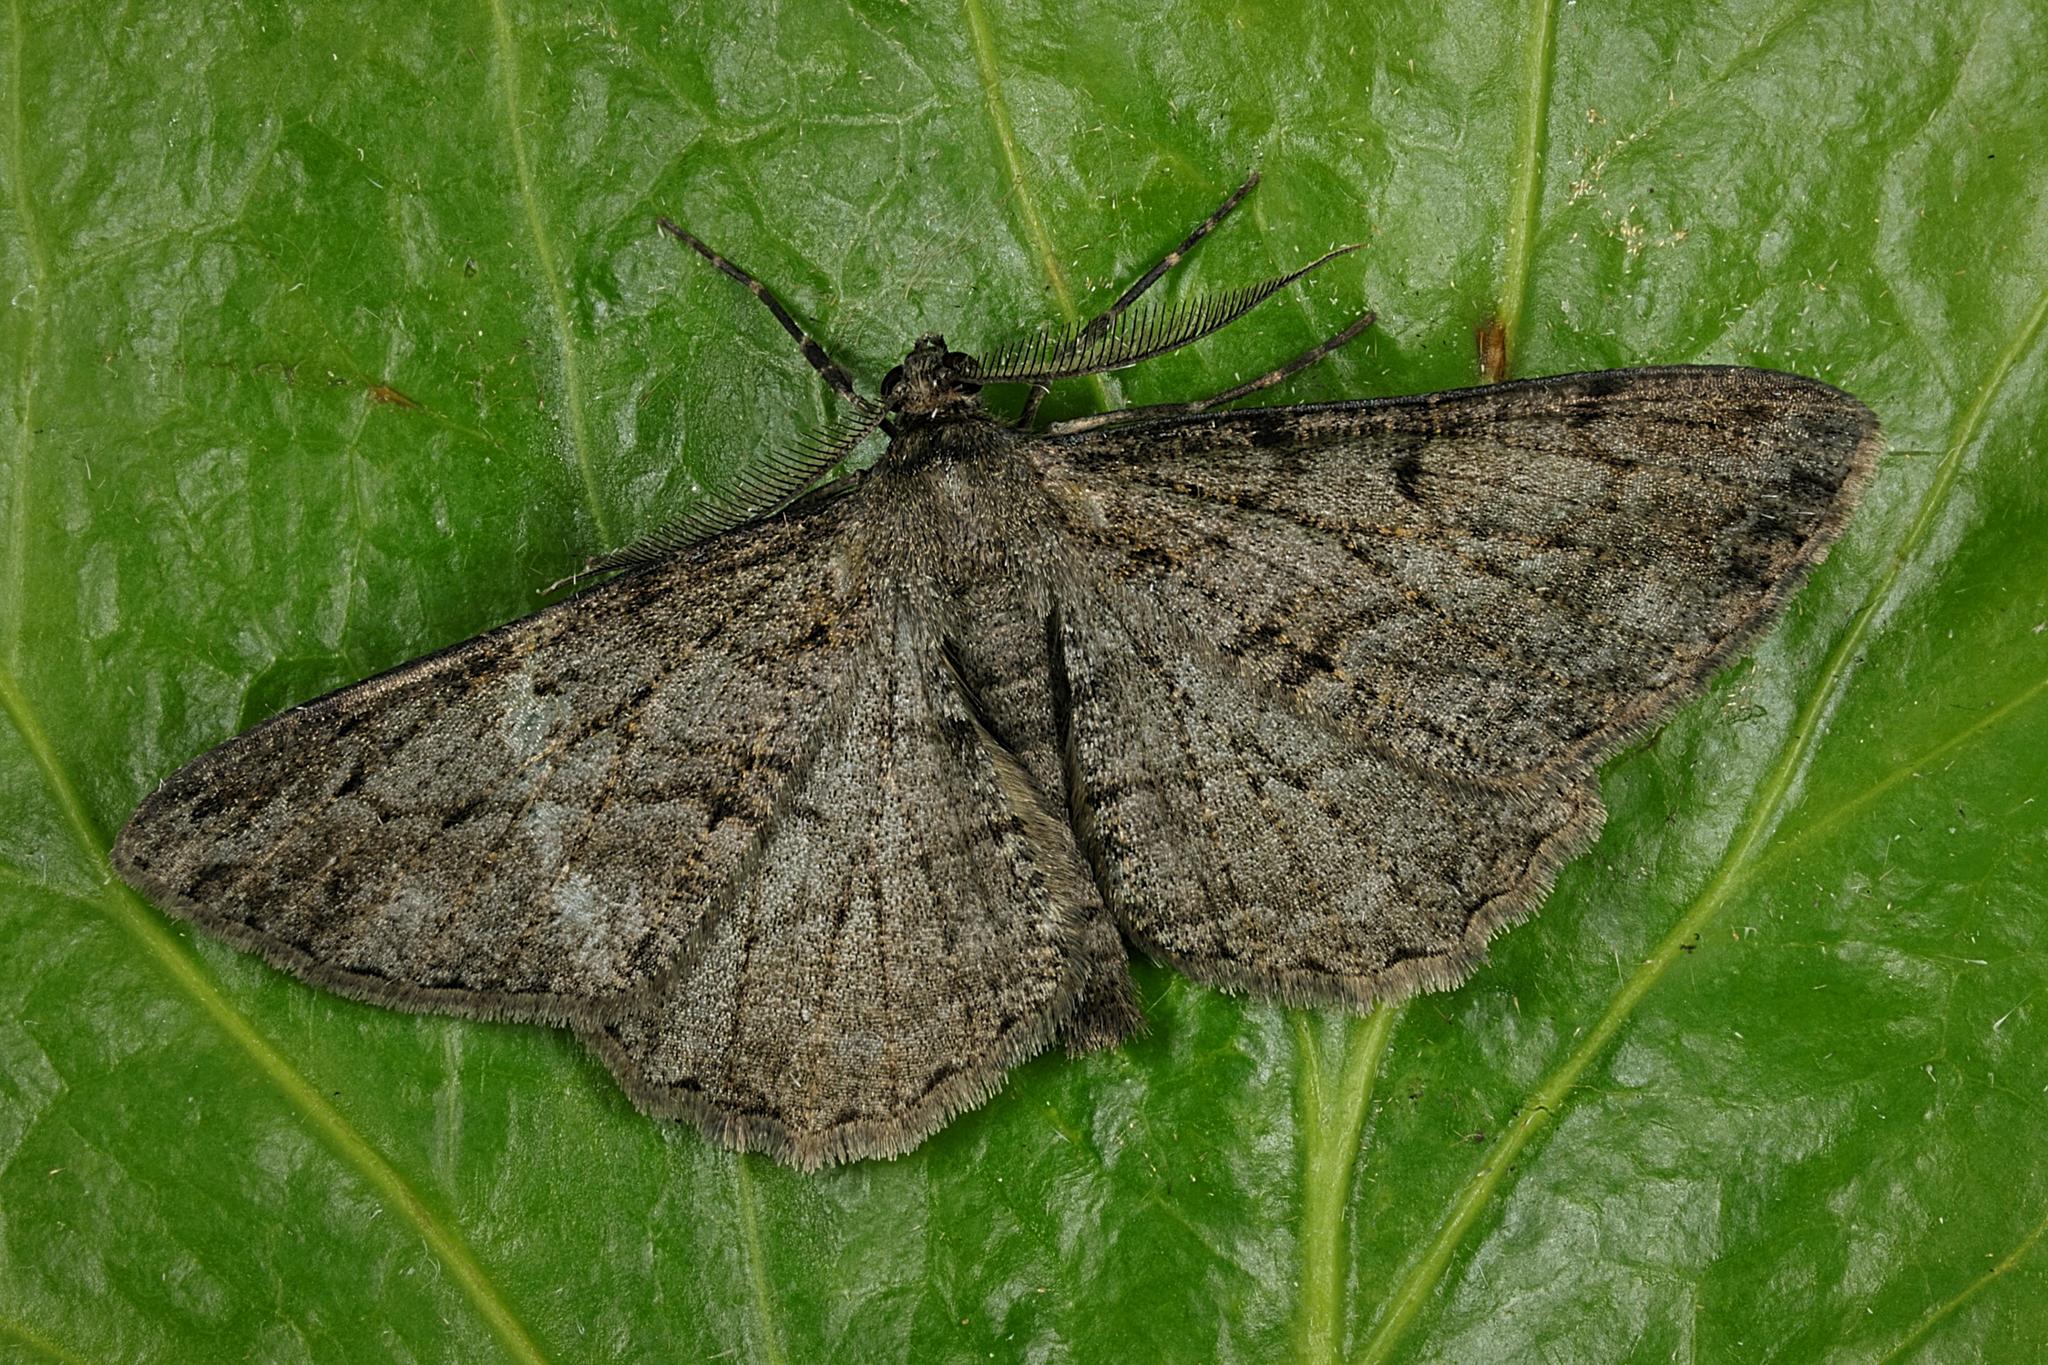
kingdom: Animalia
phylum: Arthropoda
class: Insecta
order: Lepidoptera
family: Geometridae
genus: Peribatodes
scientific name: Peribatodes rhomboidaria
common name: Willow beauty
